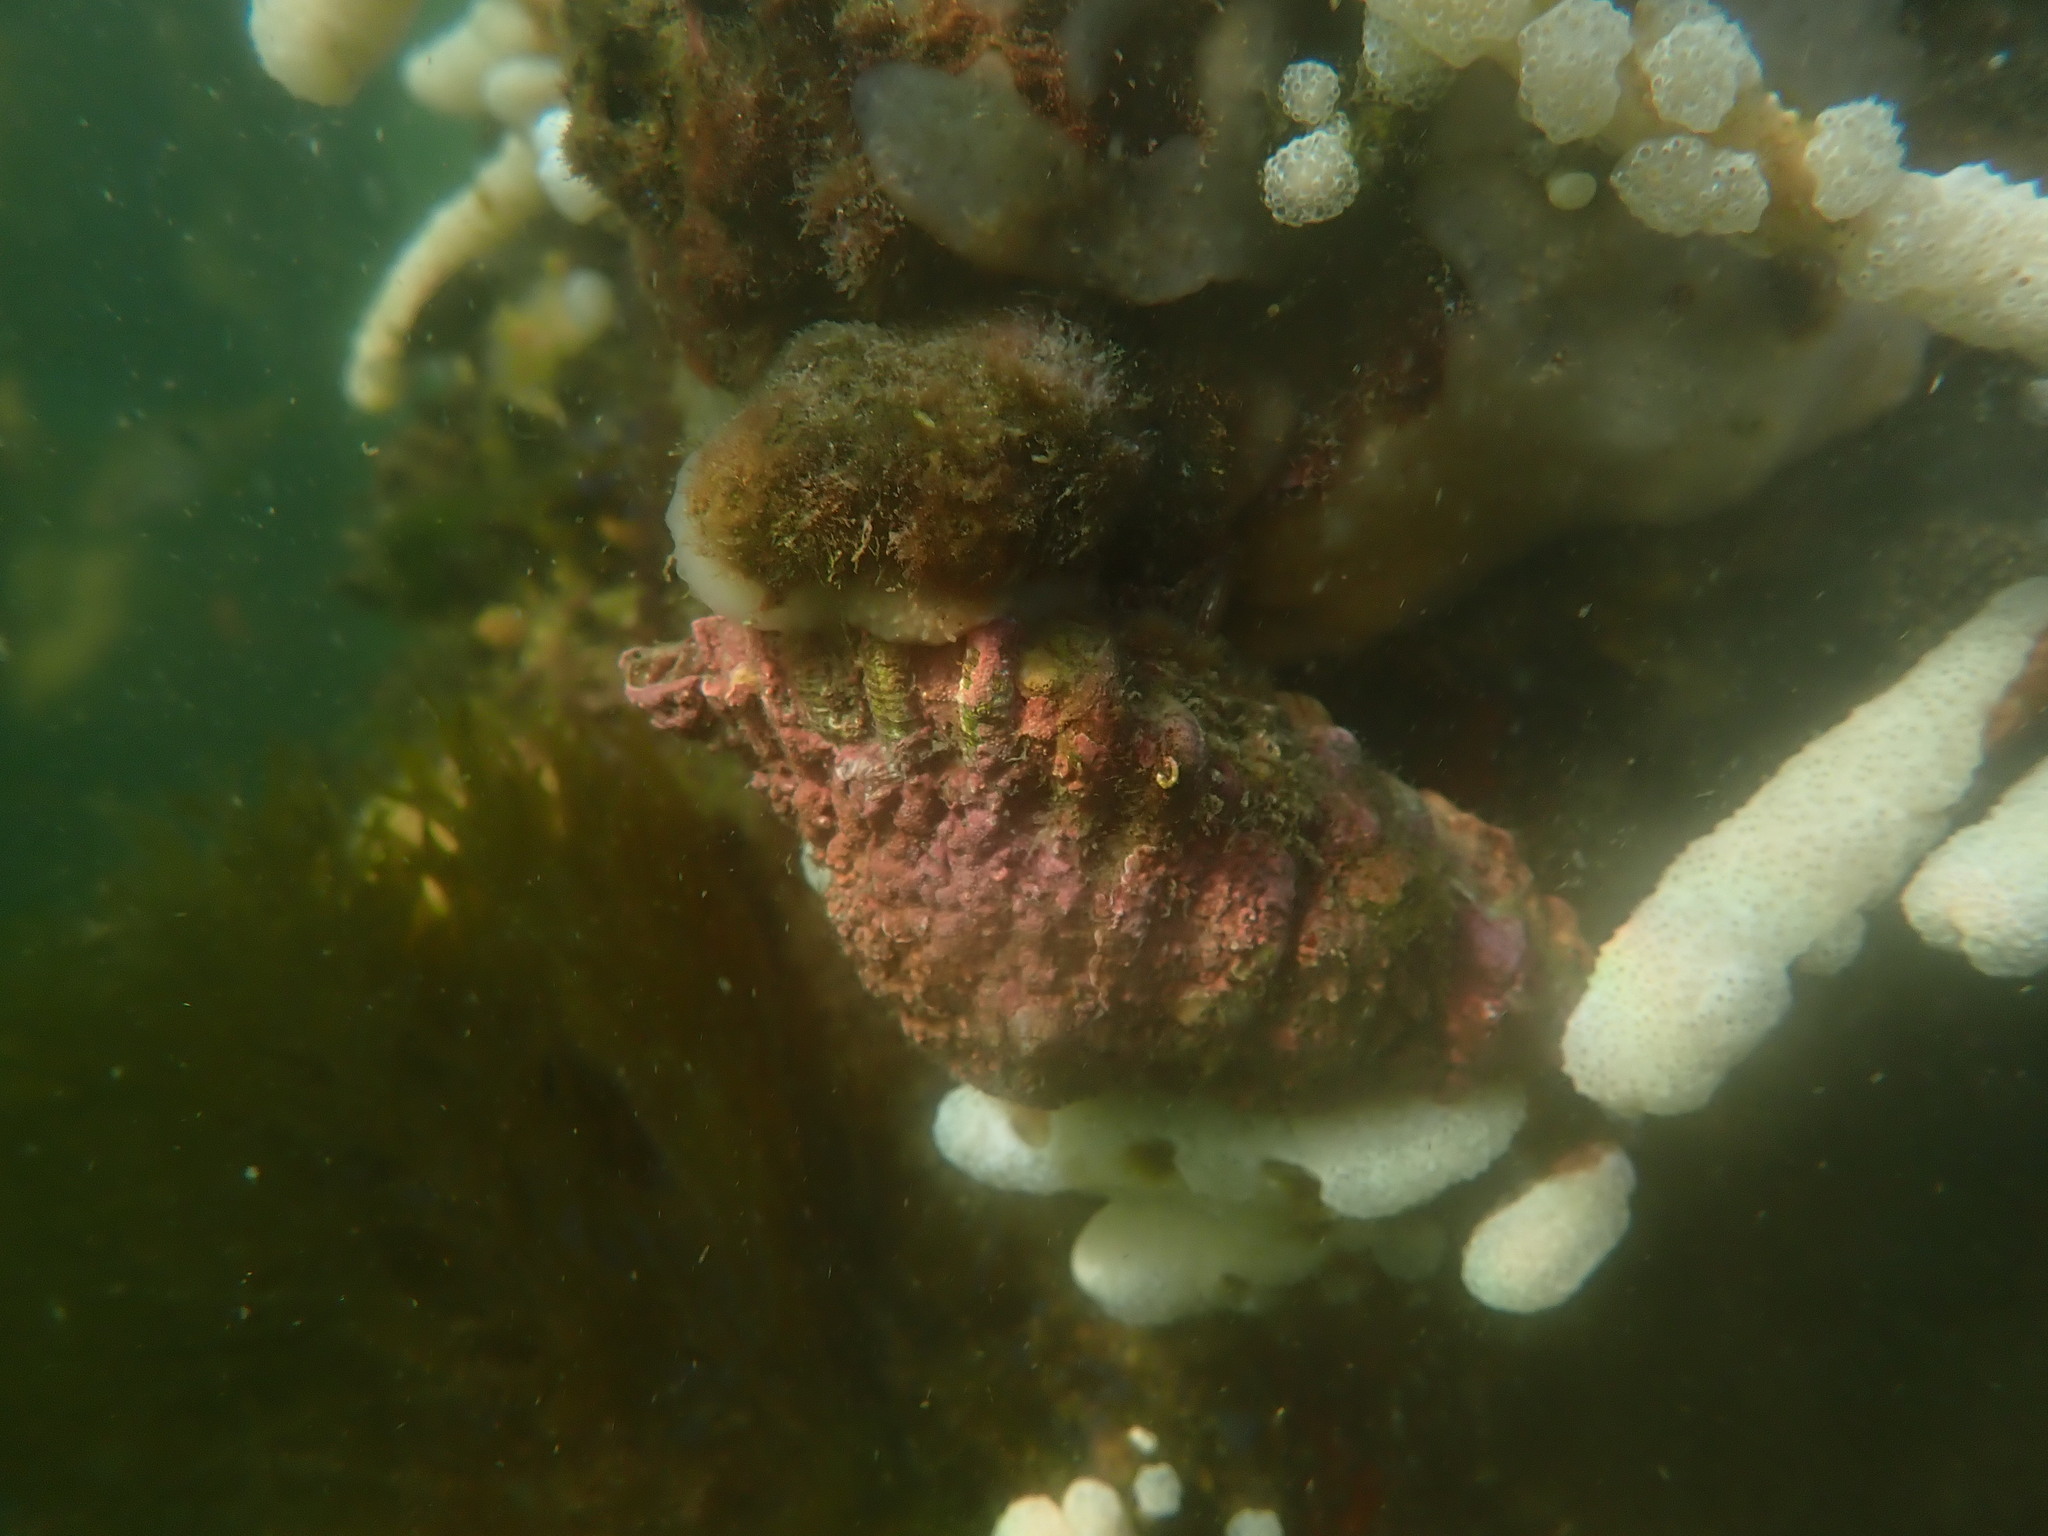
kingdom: Animalia
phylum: Mollusca
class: Gastropoda
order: Littorinimorpha
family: Cymatiidae
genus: Cabestana
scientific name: Cabestana spengleri
